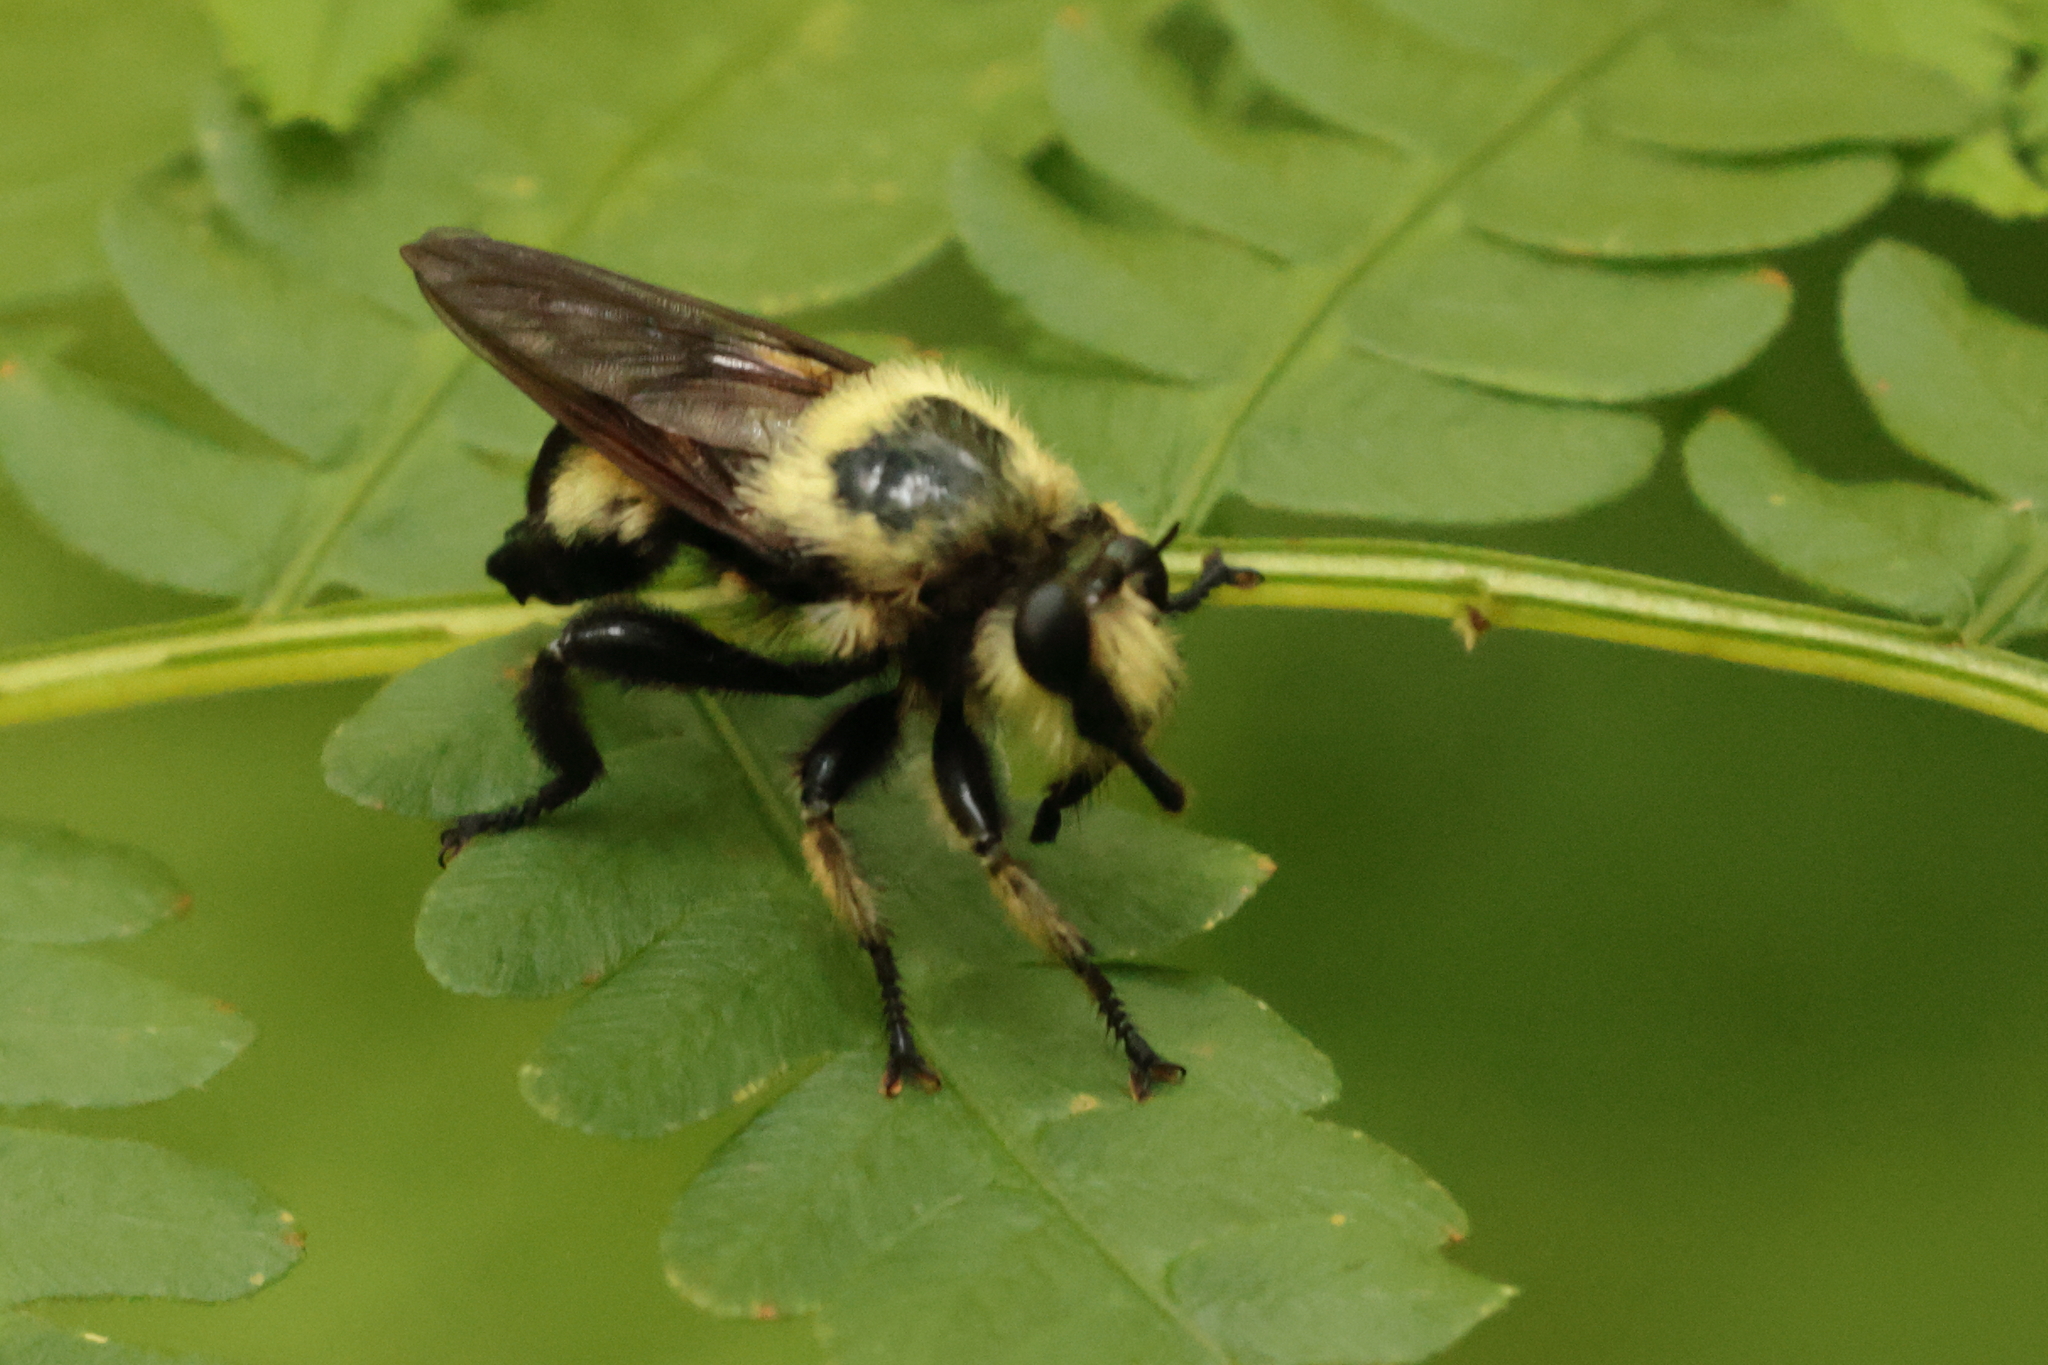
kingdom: Animalia
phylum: Arthropoda
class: Insecta
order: Diptera
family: Asilidae
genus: Laphria
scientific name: Laphria grossa
